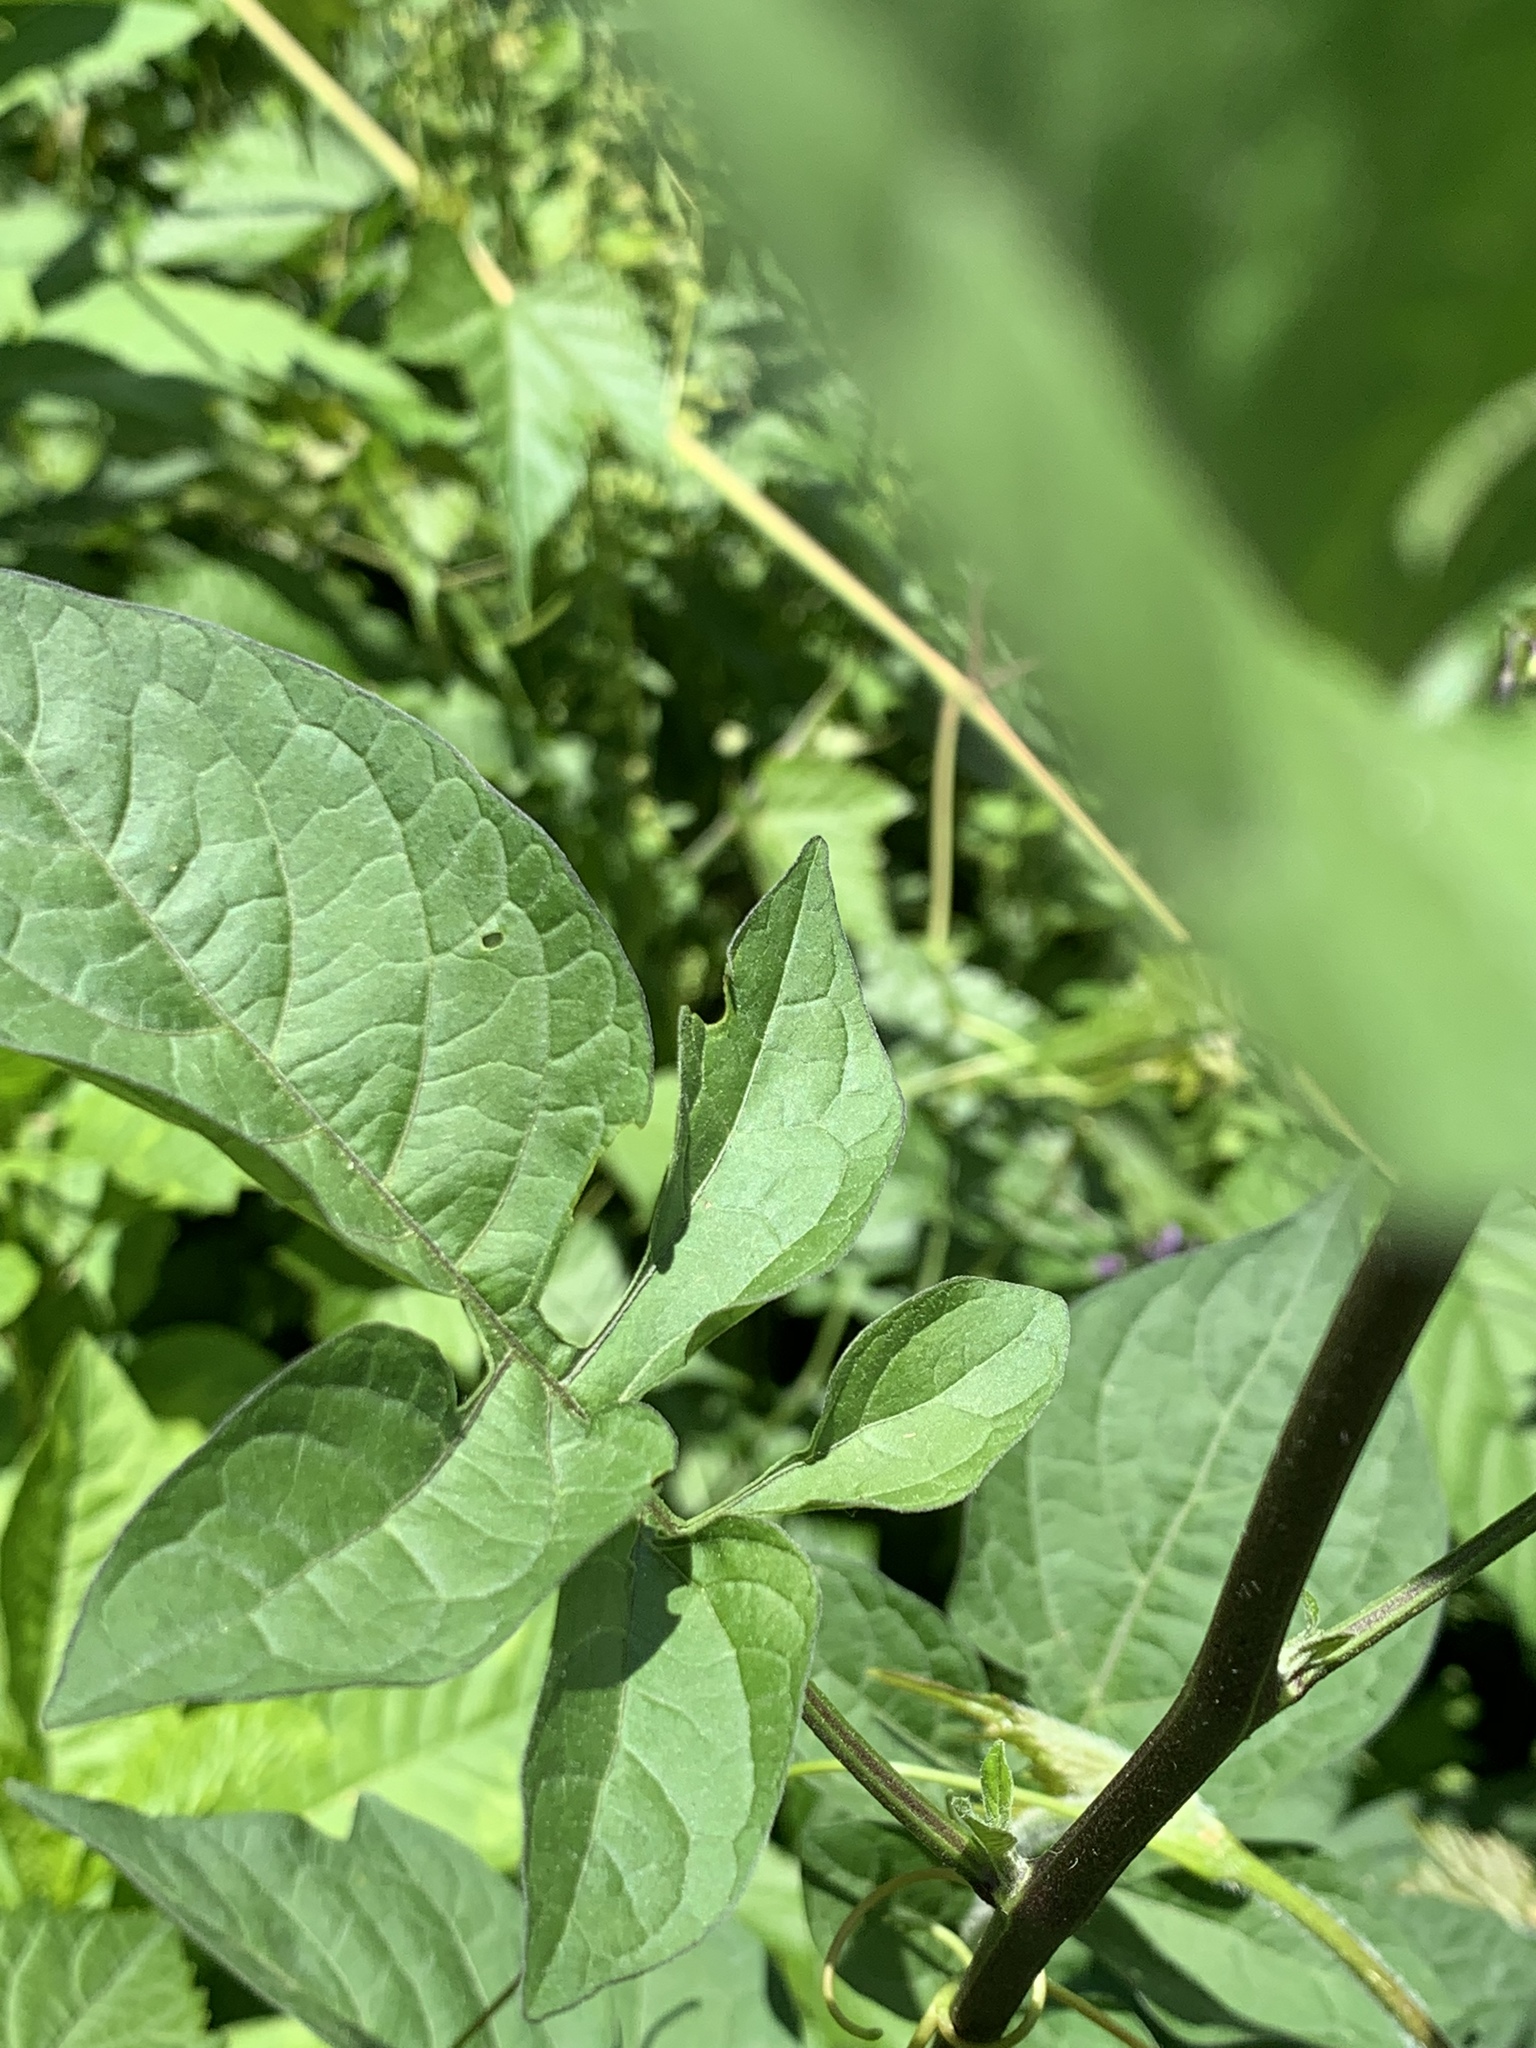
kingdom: Plantae
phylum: Tracheophyta
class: Magnoliopsida
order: Solanales
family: Solanaceae
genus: Solanum
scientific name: Solanum dulcamara
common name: Climbing nightshade
